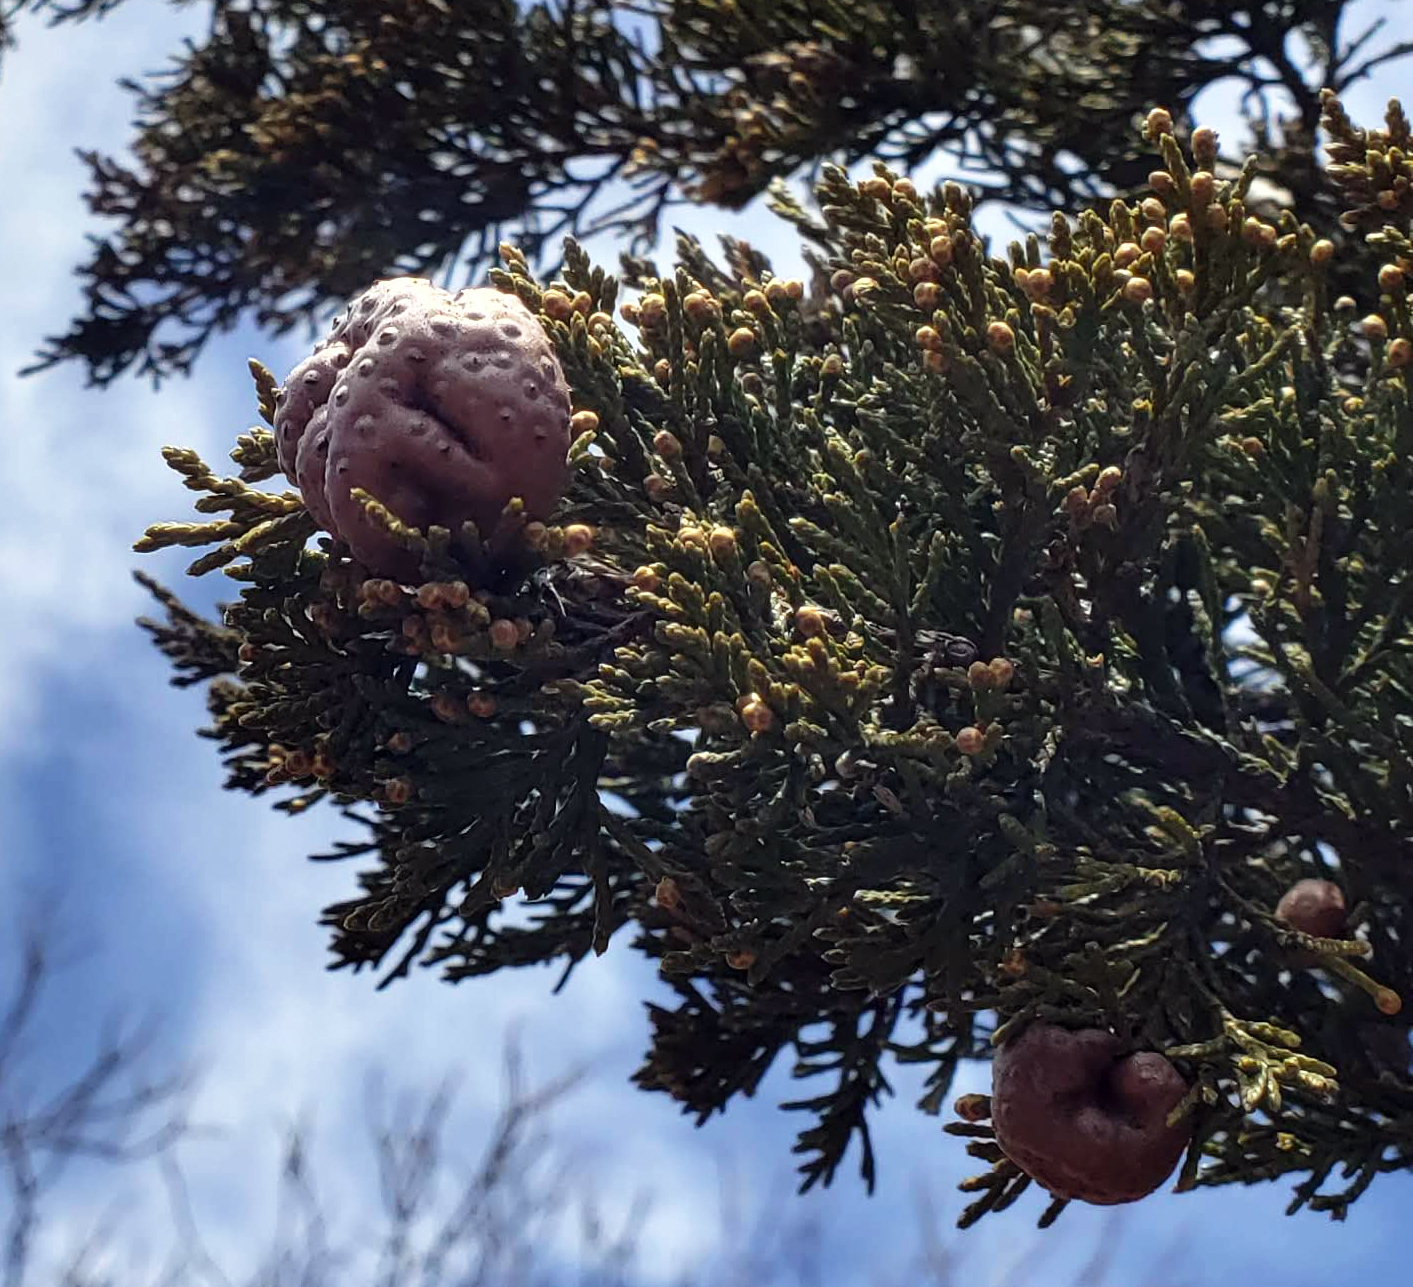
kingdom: Fungi
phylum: Basidiomycota
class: Pucciniomycetes
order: Pucciniales
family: Gymnosporangiaceae
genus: Gymnosporangium
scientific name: Gymnosporangium juniperi-virginianae
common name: Juniper-apple rust
